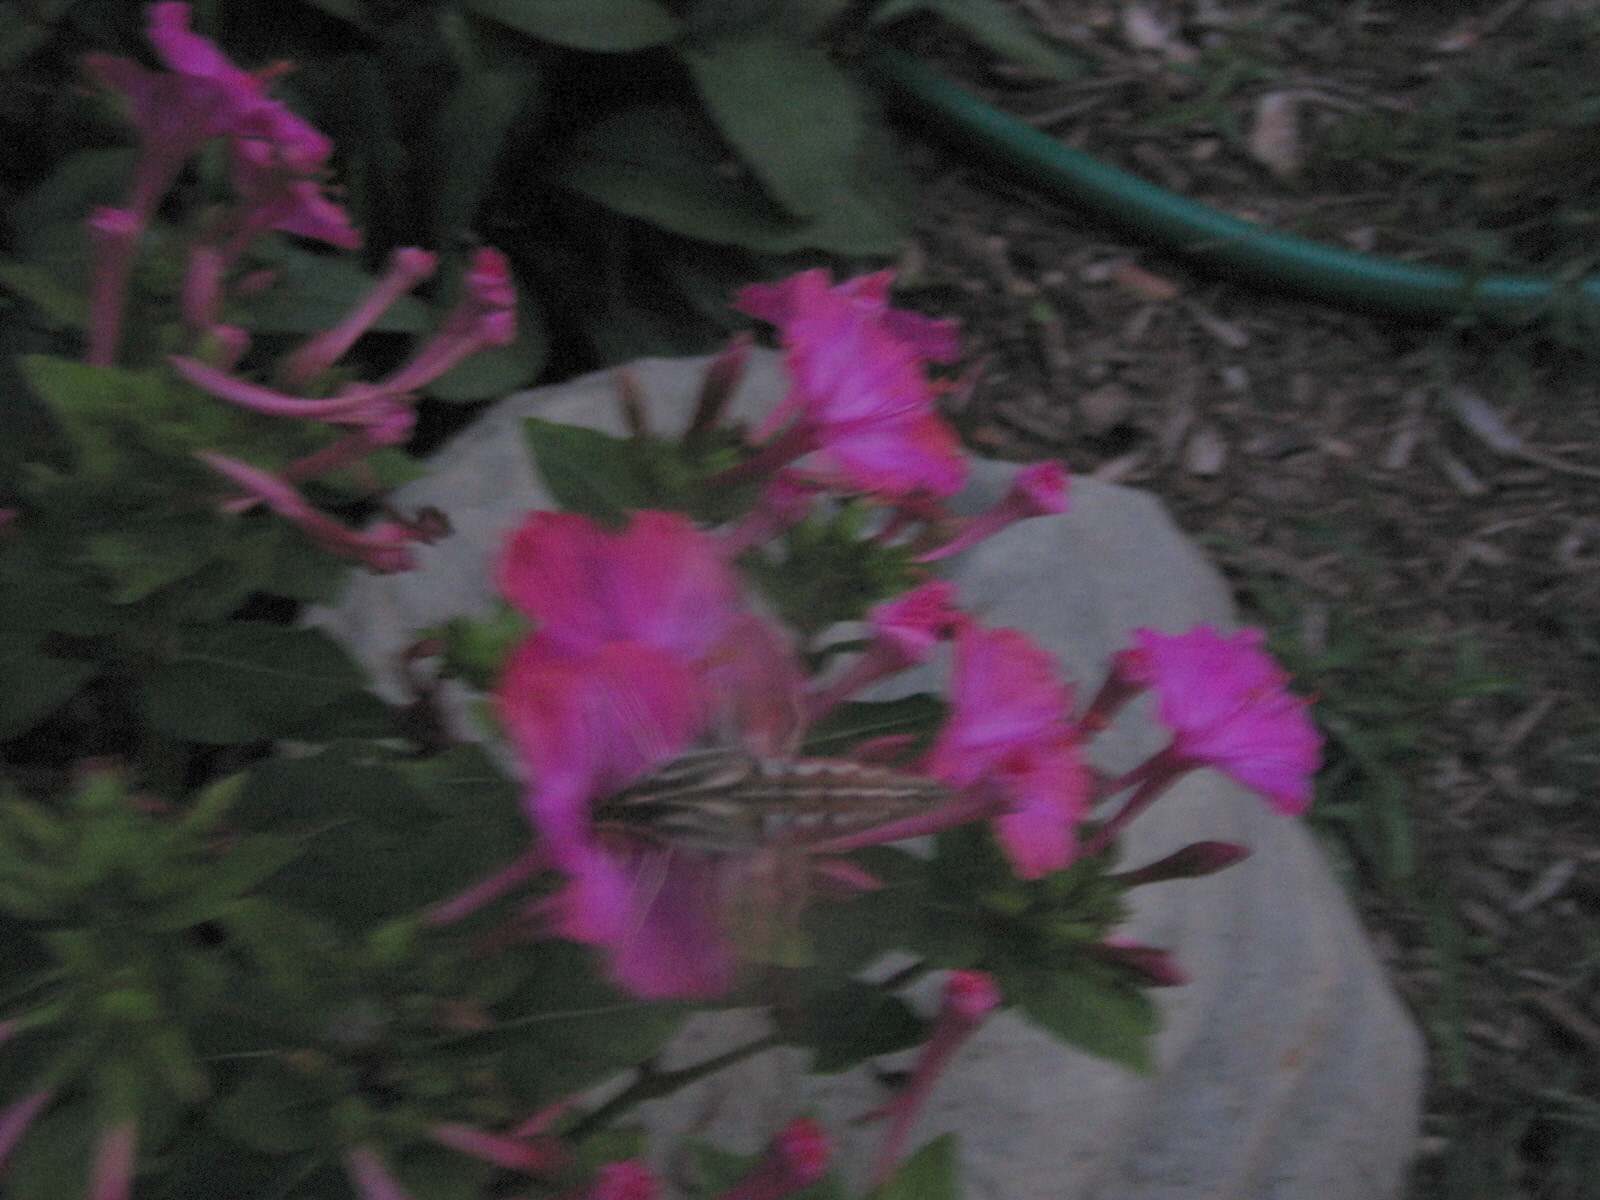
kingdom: Animalia
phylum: Arthropoda
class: Insecta
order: Lepidoptera
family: Sphingidae
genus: Hyles
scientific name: Hyles lineata
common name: White-lined sphinx
